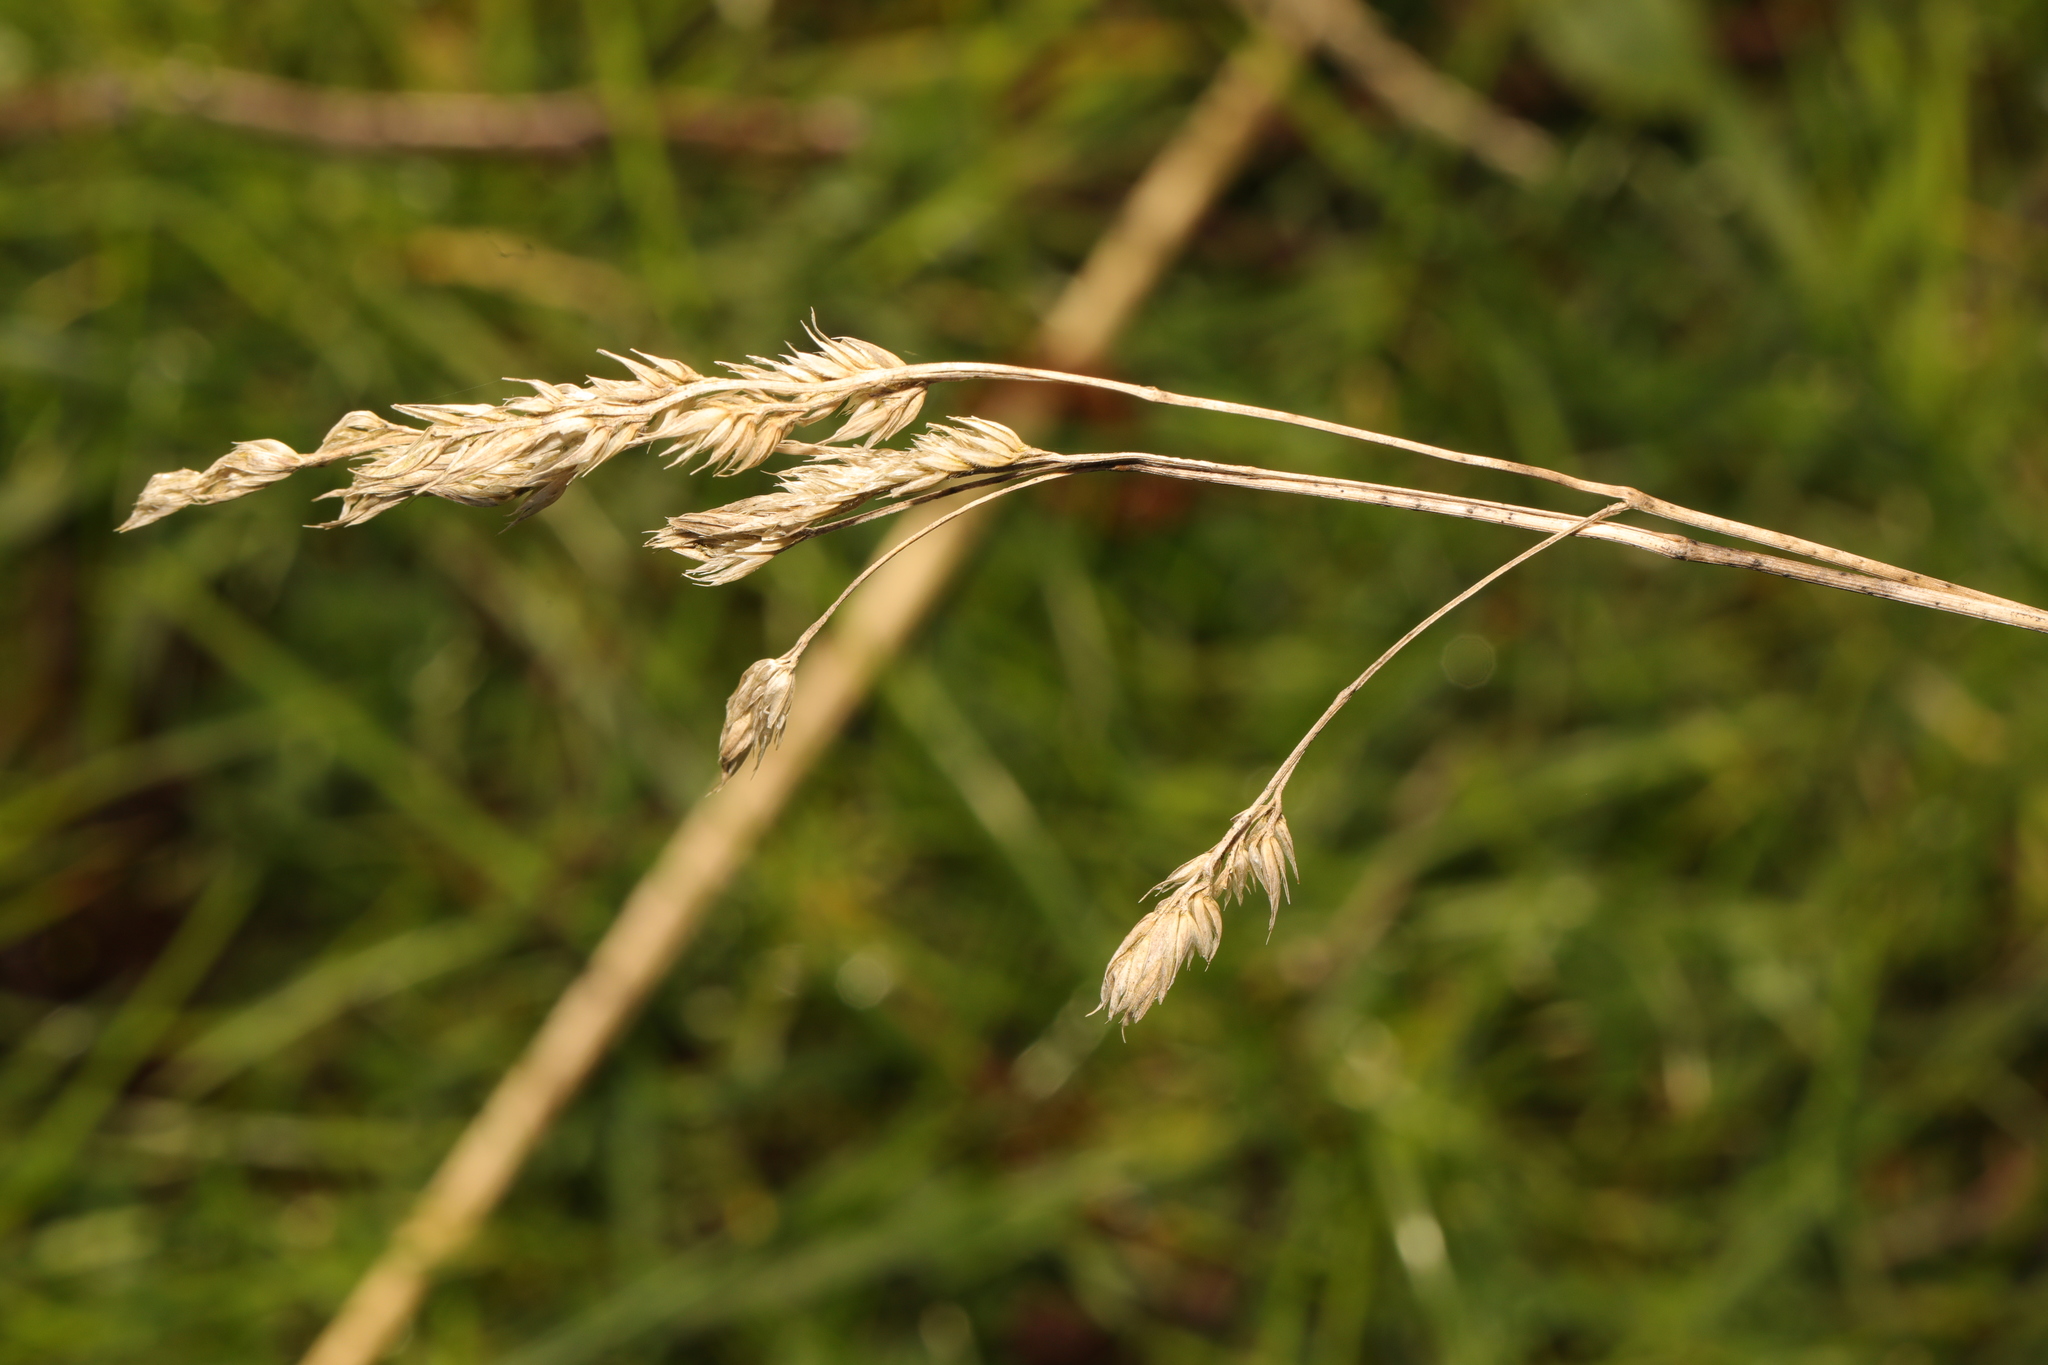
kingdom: Plantae
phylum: Tracheophyta
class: Liliopsida
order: Poales
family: Poaceae
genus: Dactylis
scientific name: Dactylis glomerata
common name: Orchardgrass
